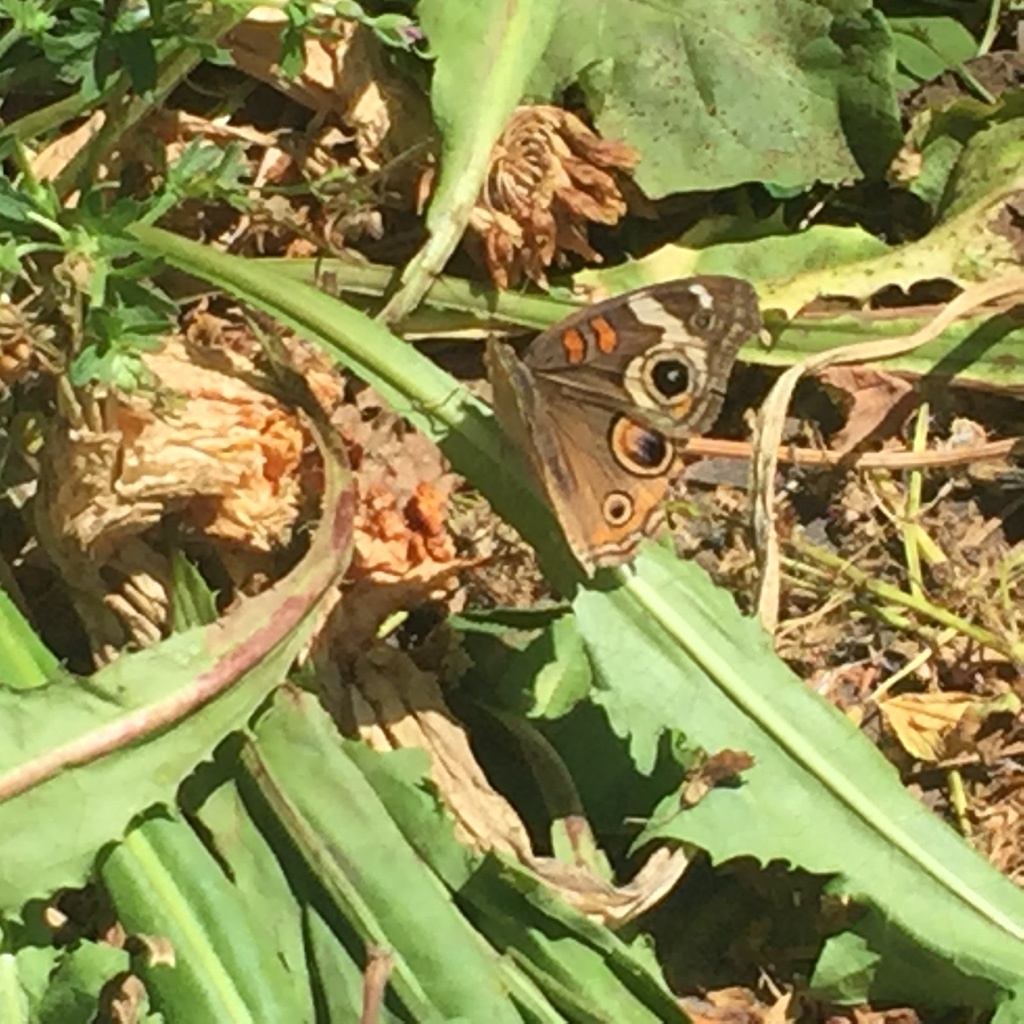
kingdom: Animalia
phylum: Arthropoda
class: Insecta
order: Lepidoptera
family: Nymphalidae
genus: Junonia
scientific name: Junonia grisea
